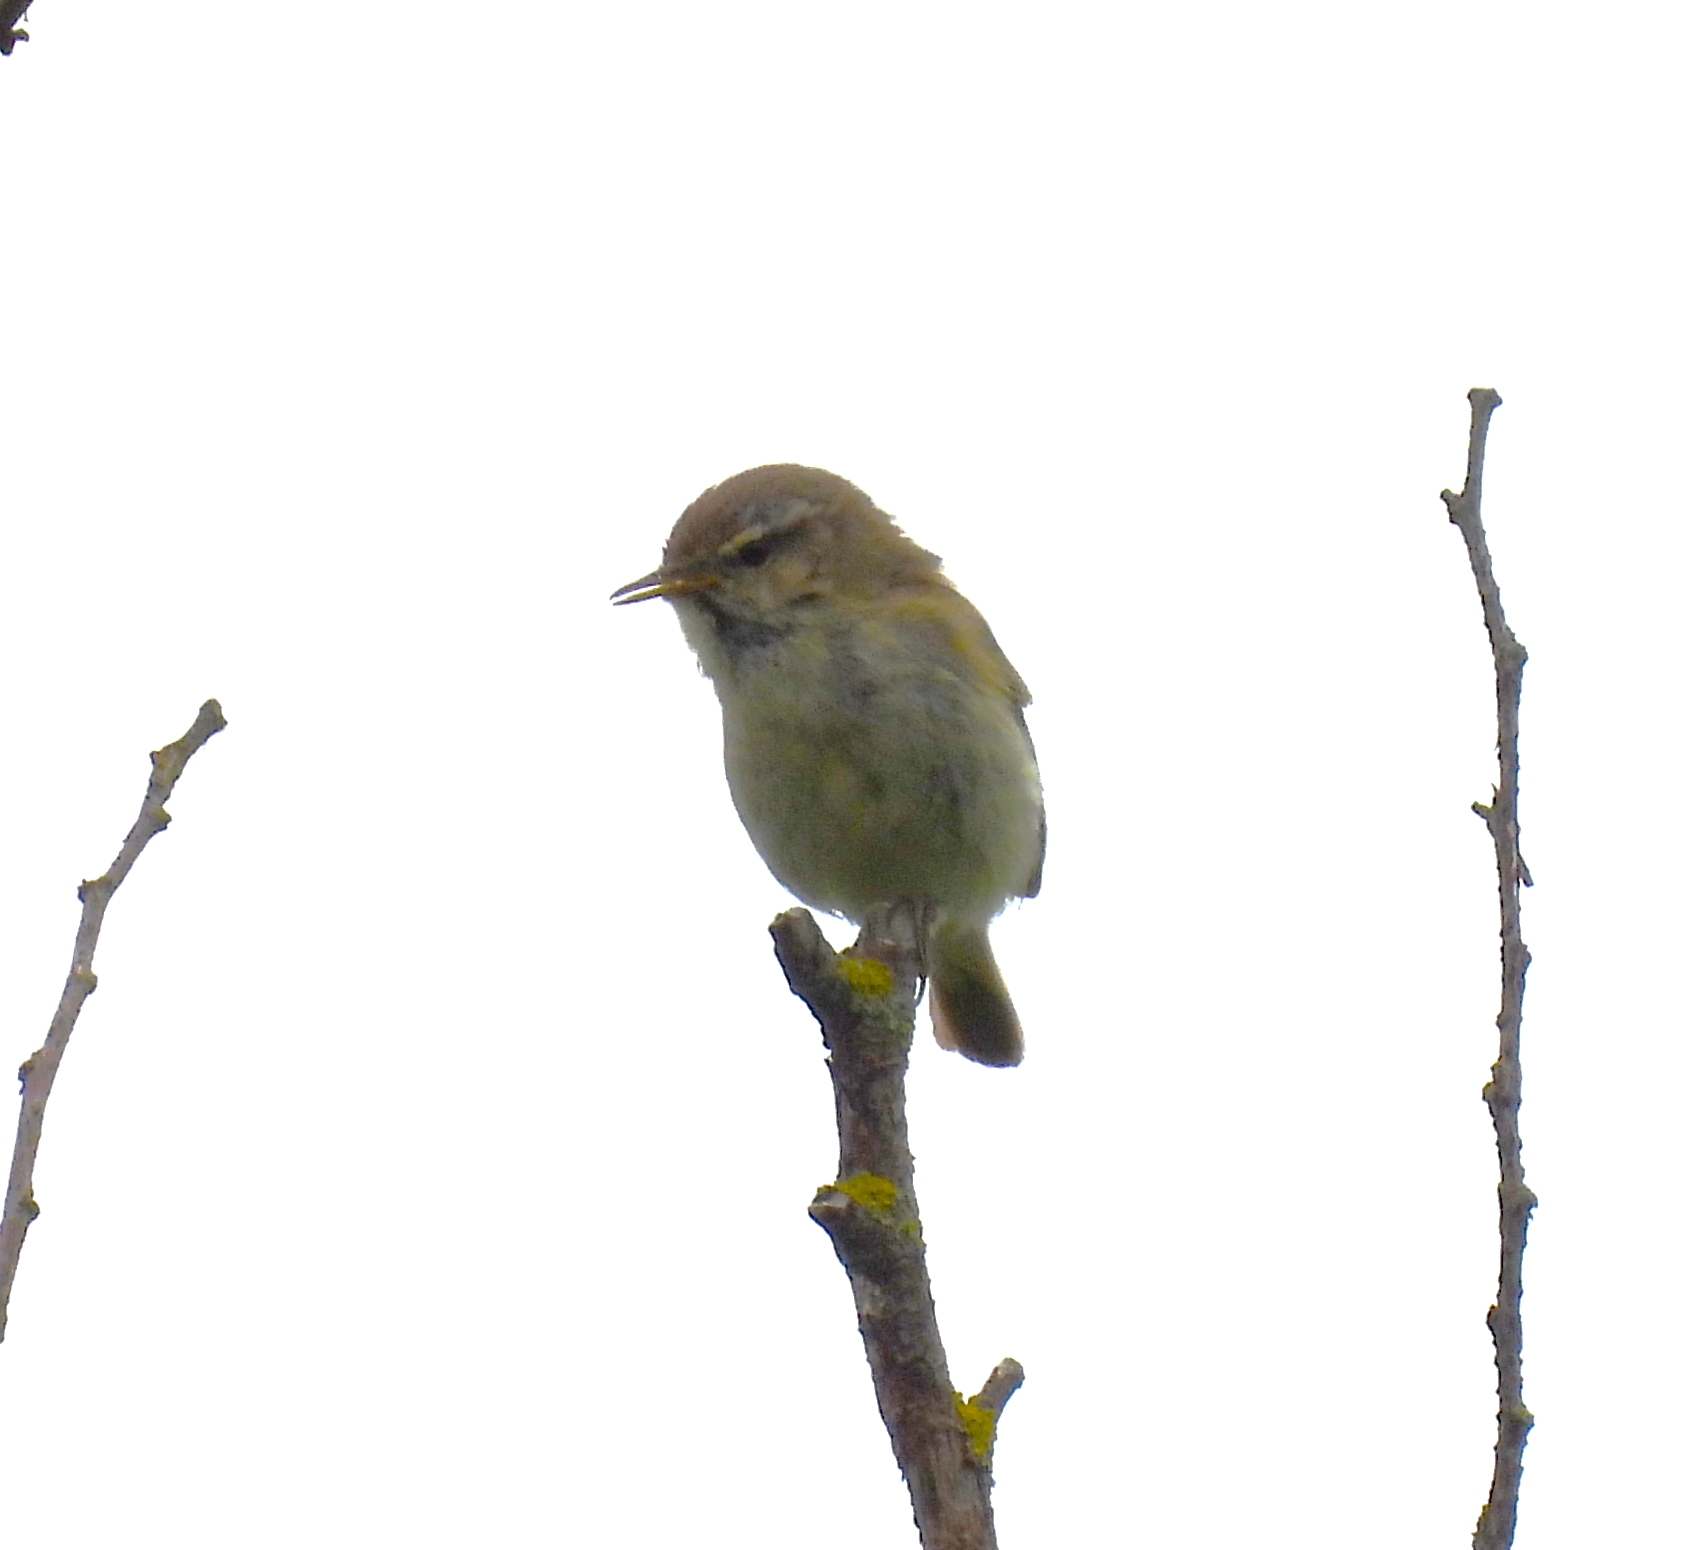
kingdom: Animalia
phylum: Chordata
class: Aves
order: Passeriformes
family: Phylloscopidae
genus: Phylloscopus
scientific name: Phylloscopus collybita
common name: Common chiffchaff
